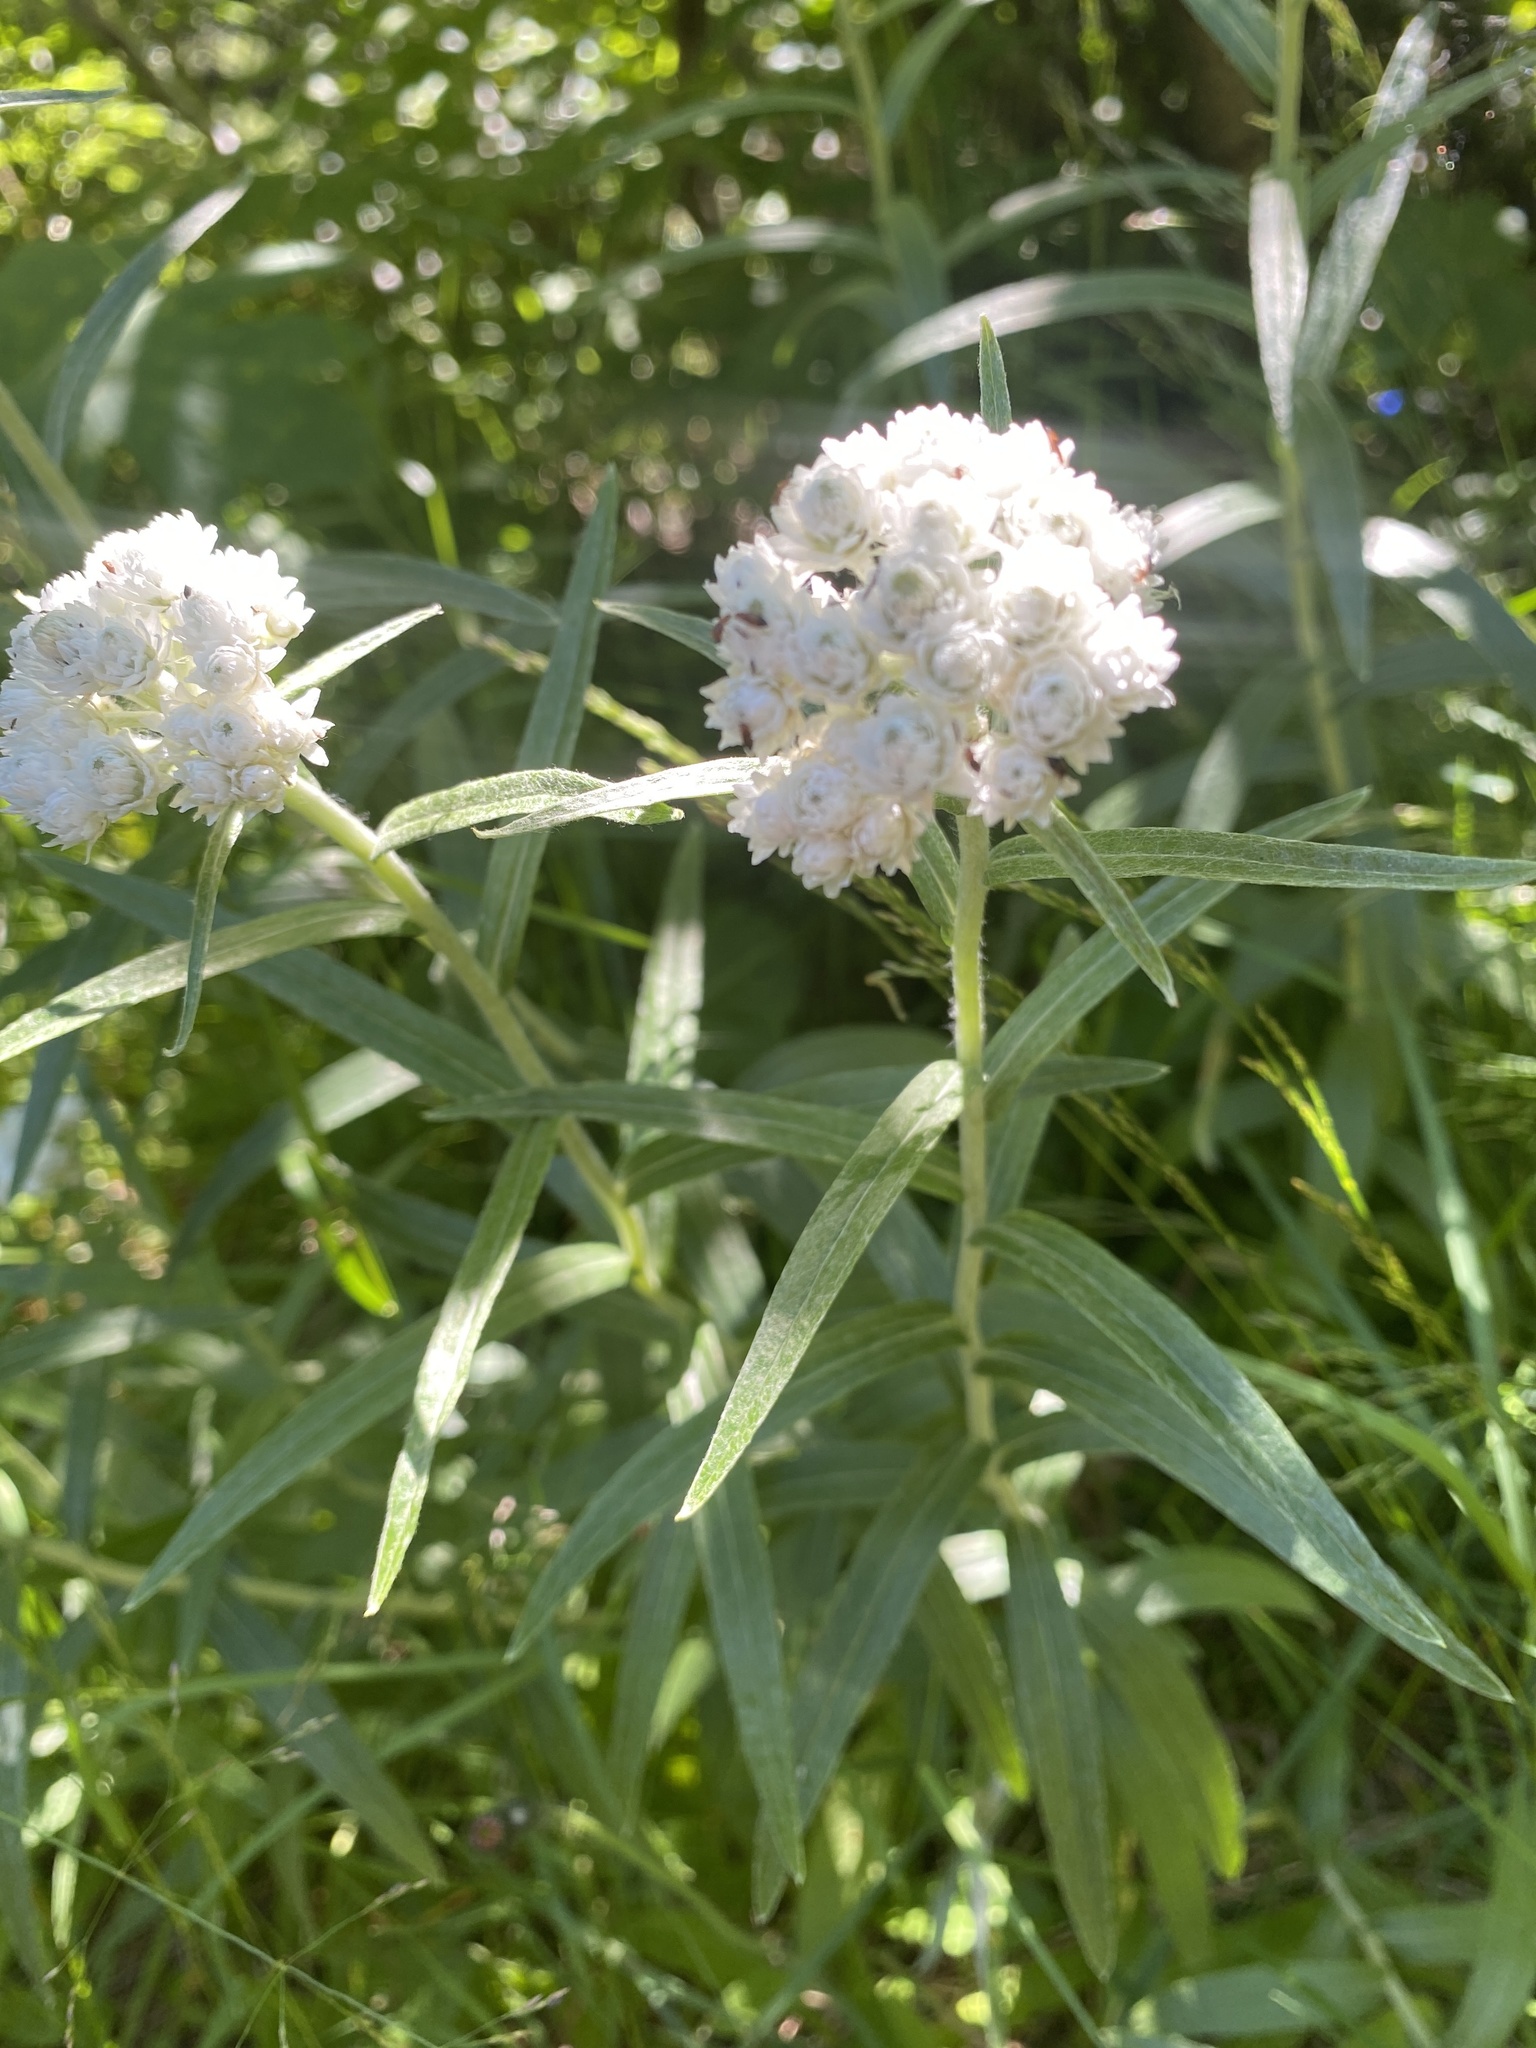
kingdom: Plantae
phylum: Tracheophyta
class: Magnoliopsida
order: Asterales
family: Asteraceae
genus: Anaphalis
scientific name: Anaphalis margaritacea
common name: Pearly everlasting
